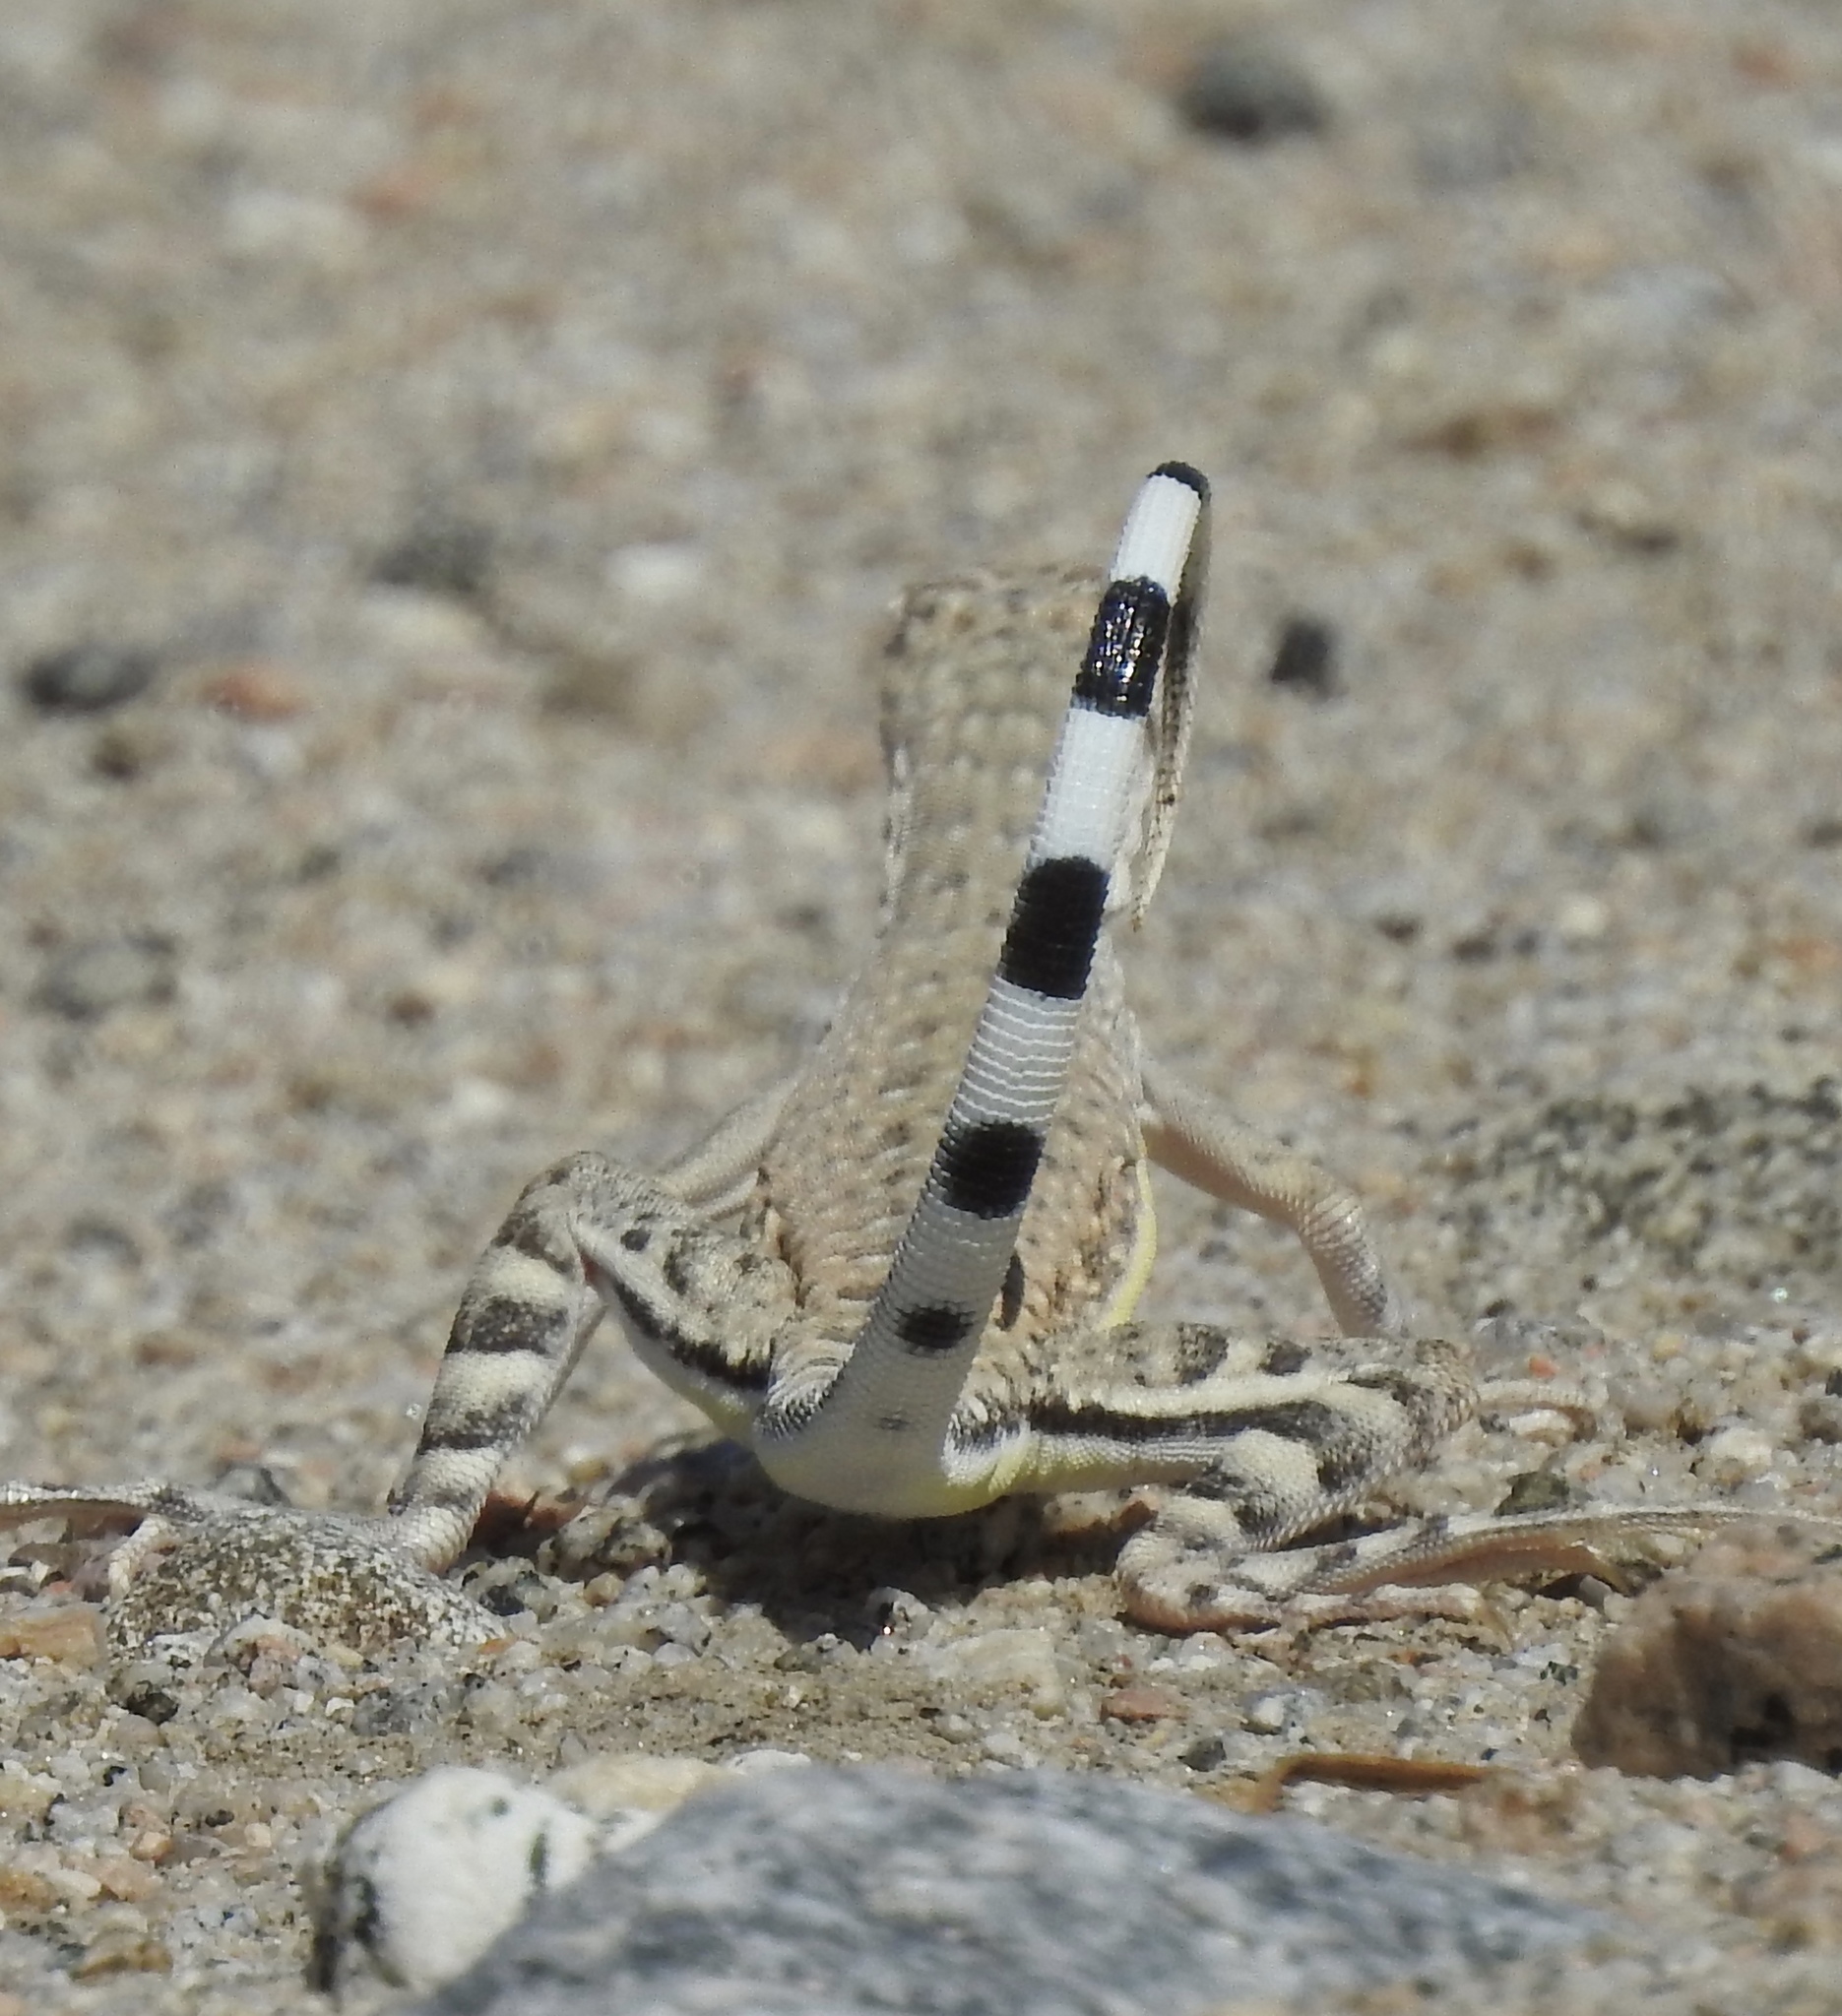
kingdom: Animalia
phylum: Chordata
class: Squamata
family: Phrynosomatidae
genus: Callisaurus
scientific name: Callisaurus draconoides
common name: Zebra-tailed lizard
